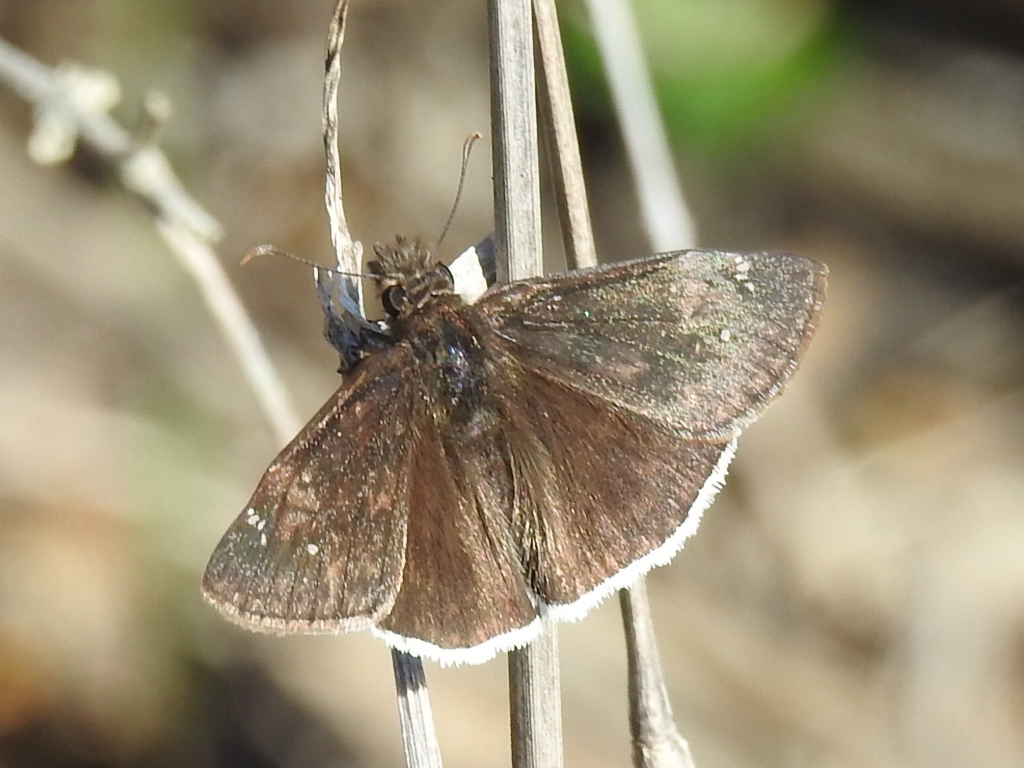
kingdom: Animalia
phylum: Arthropoda
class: Insecta
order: Lepidoptera
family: Hesperiidae
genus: Erynnis
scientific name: Erynnis funeralis
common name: Funereal duskywing
